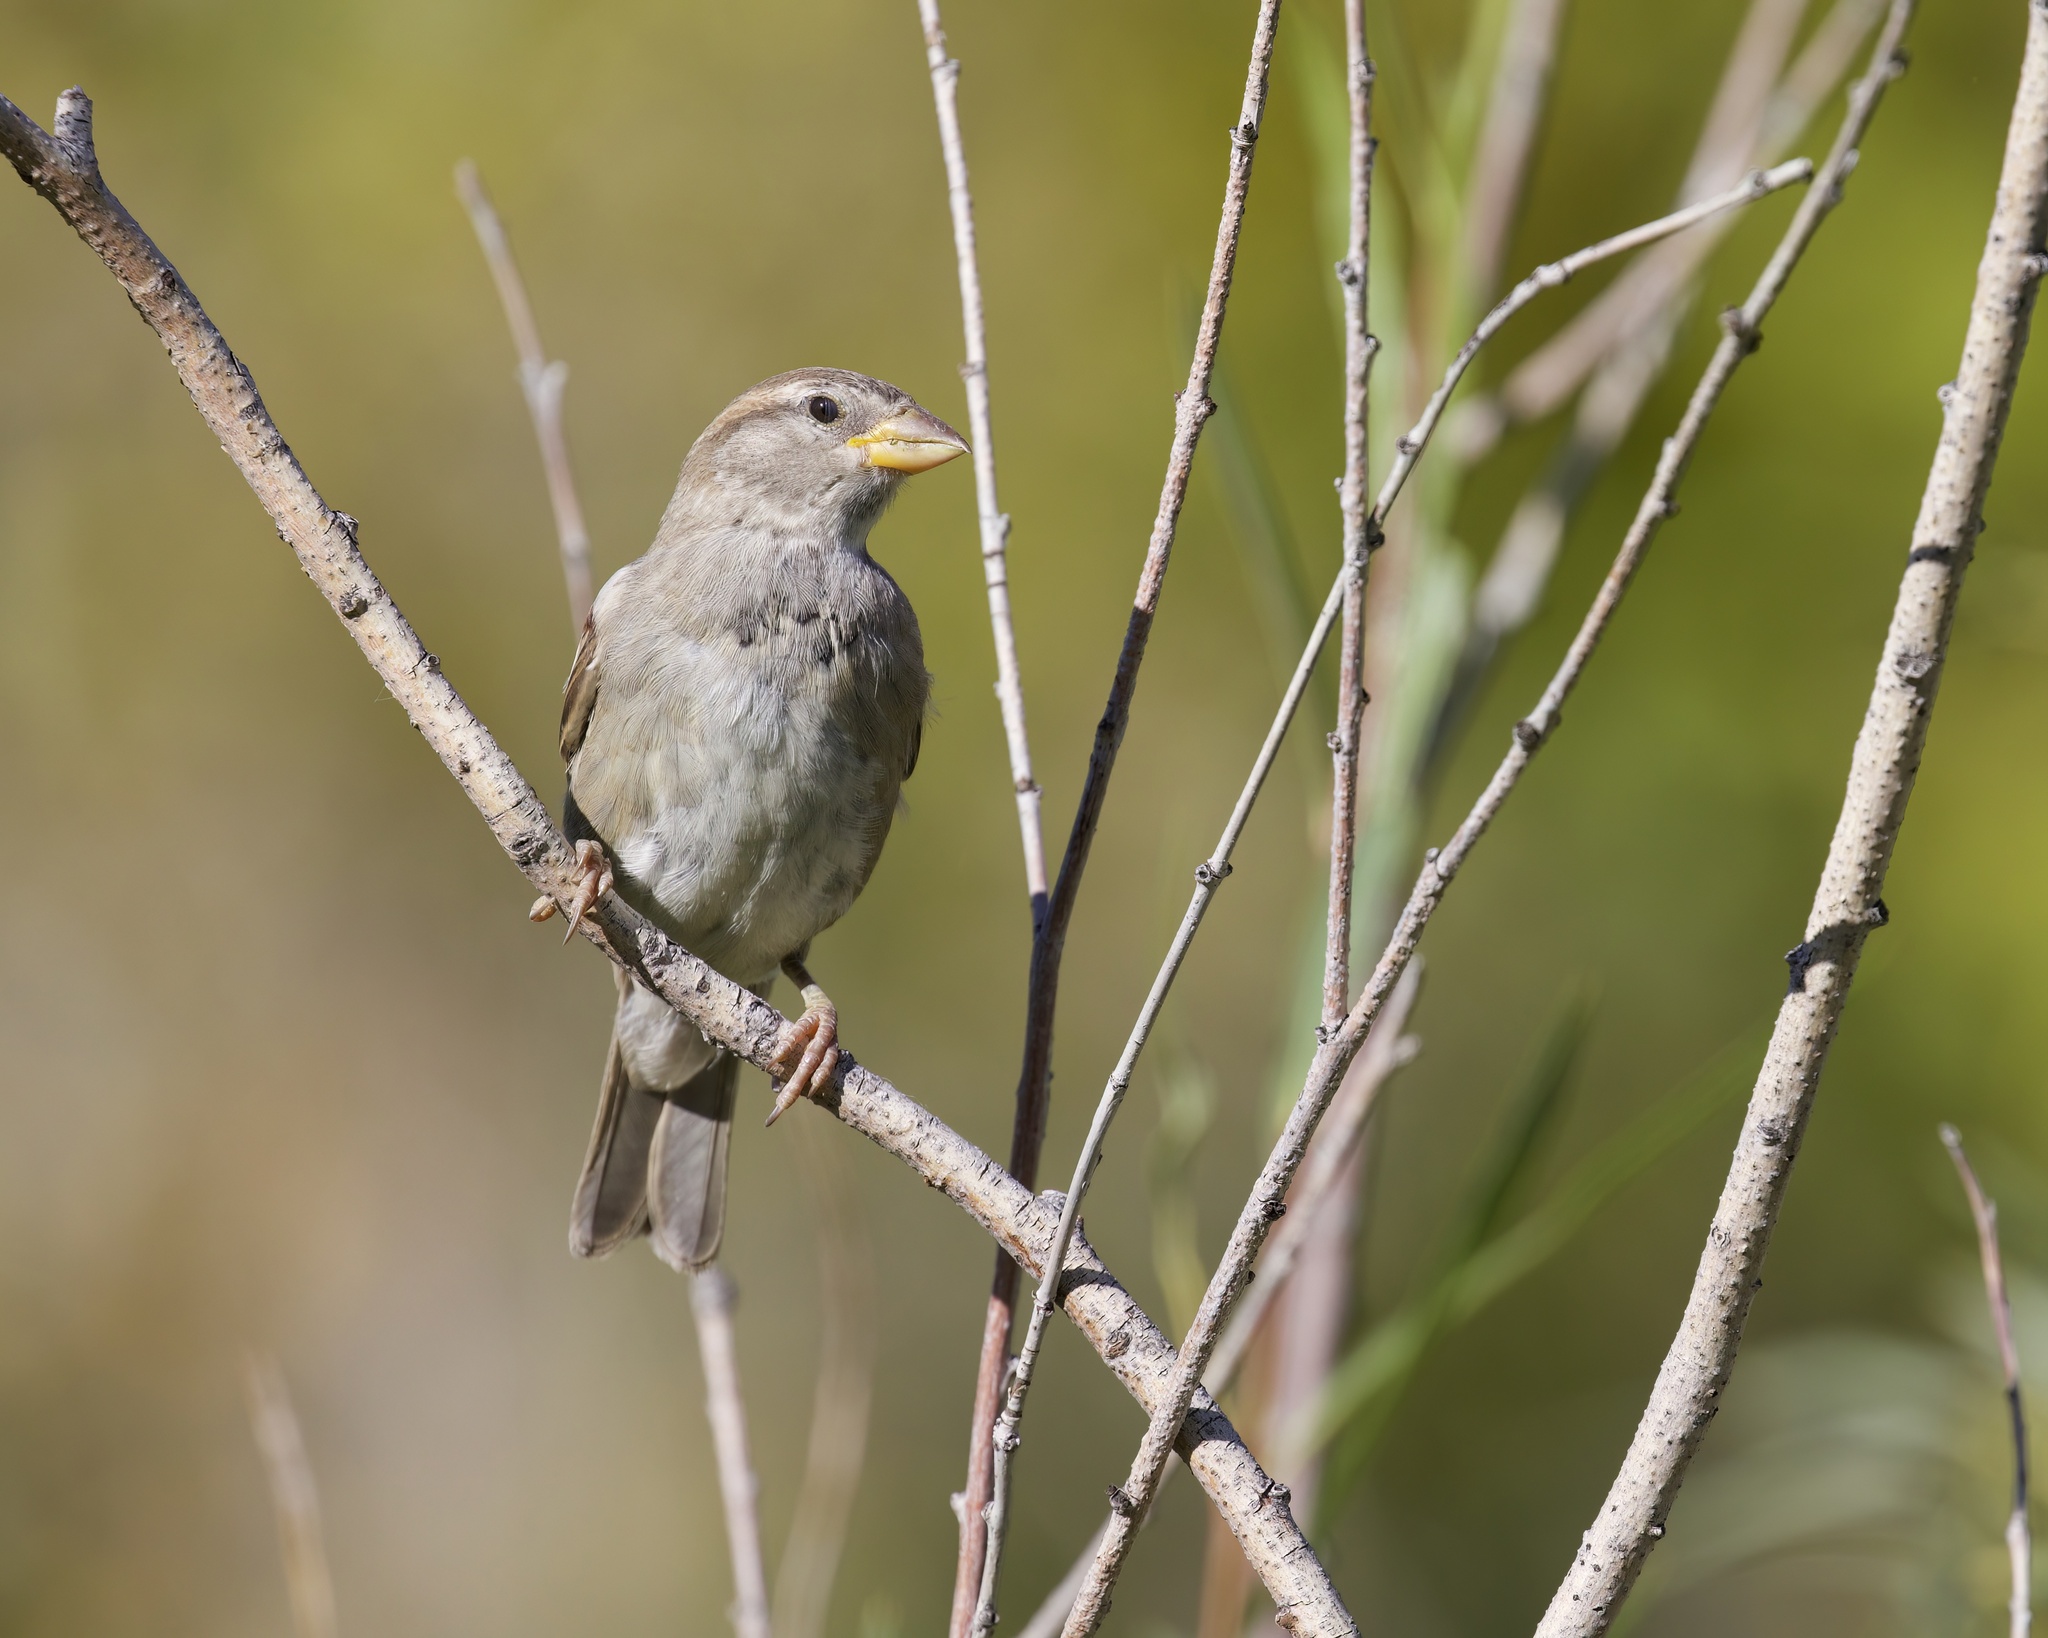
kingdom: Animalia
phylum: Chordata
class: Aves
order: Passeriformes
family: Passeridae
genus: Passer
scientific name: Passer domesticus
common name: House sparrow
